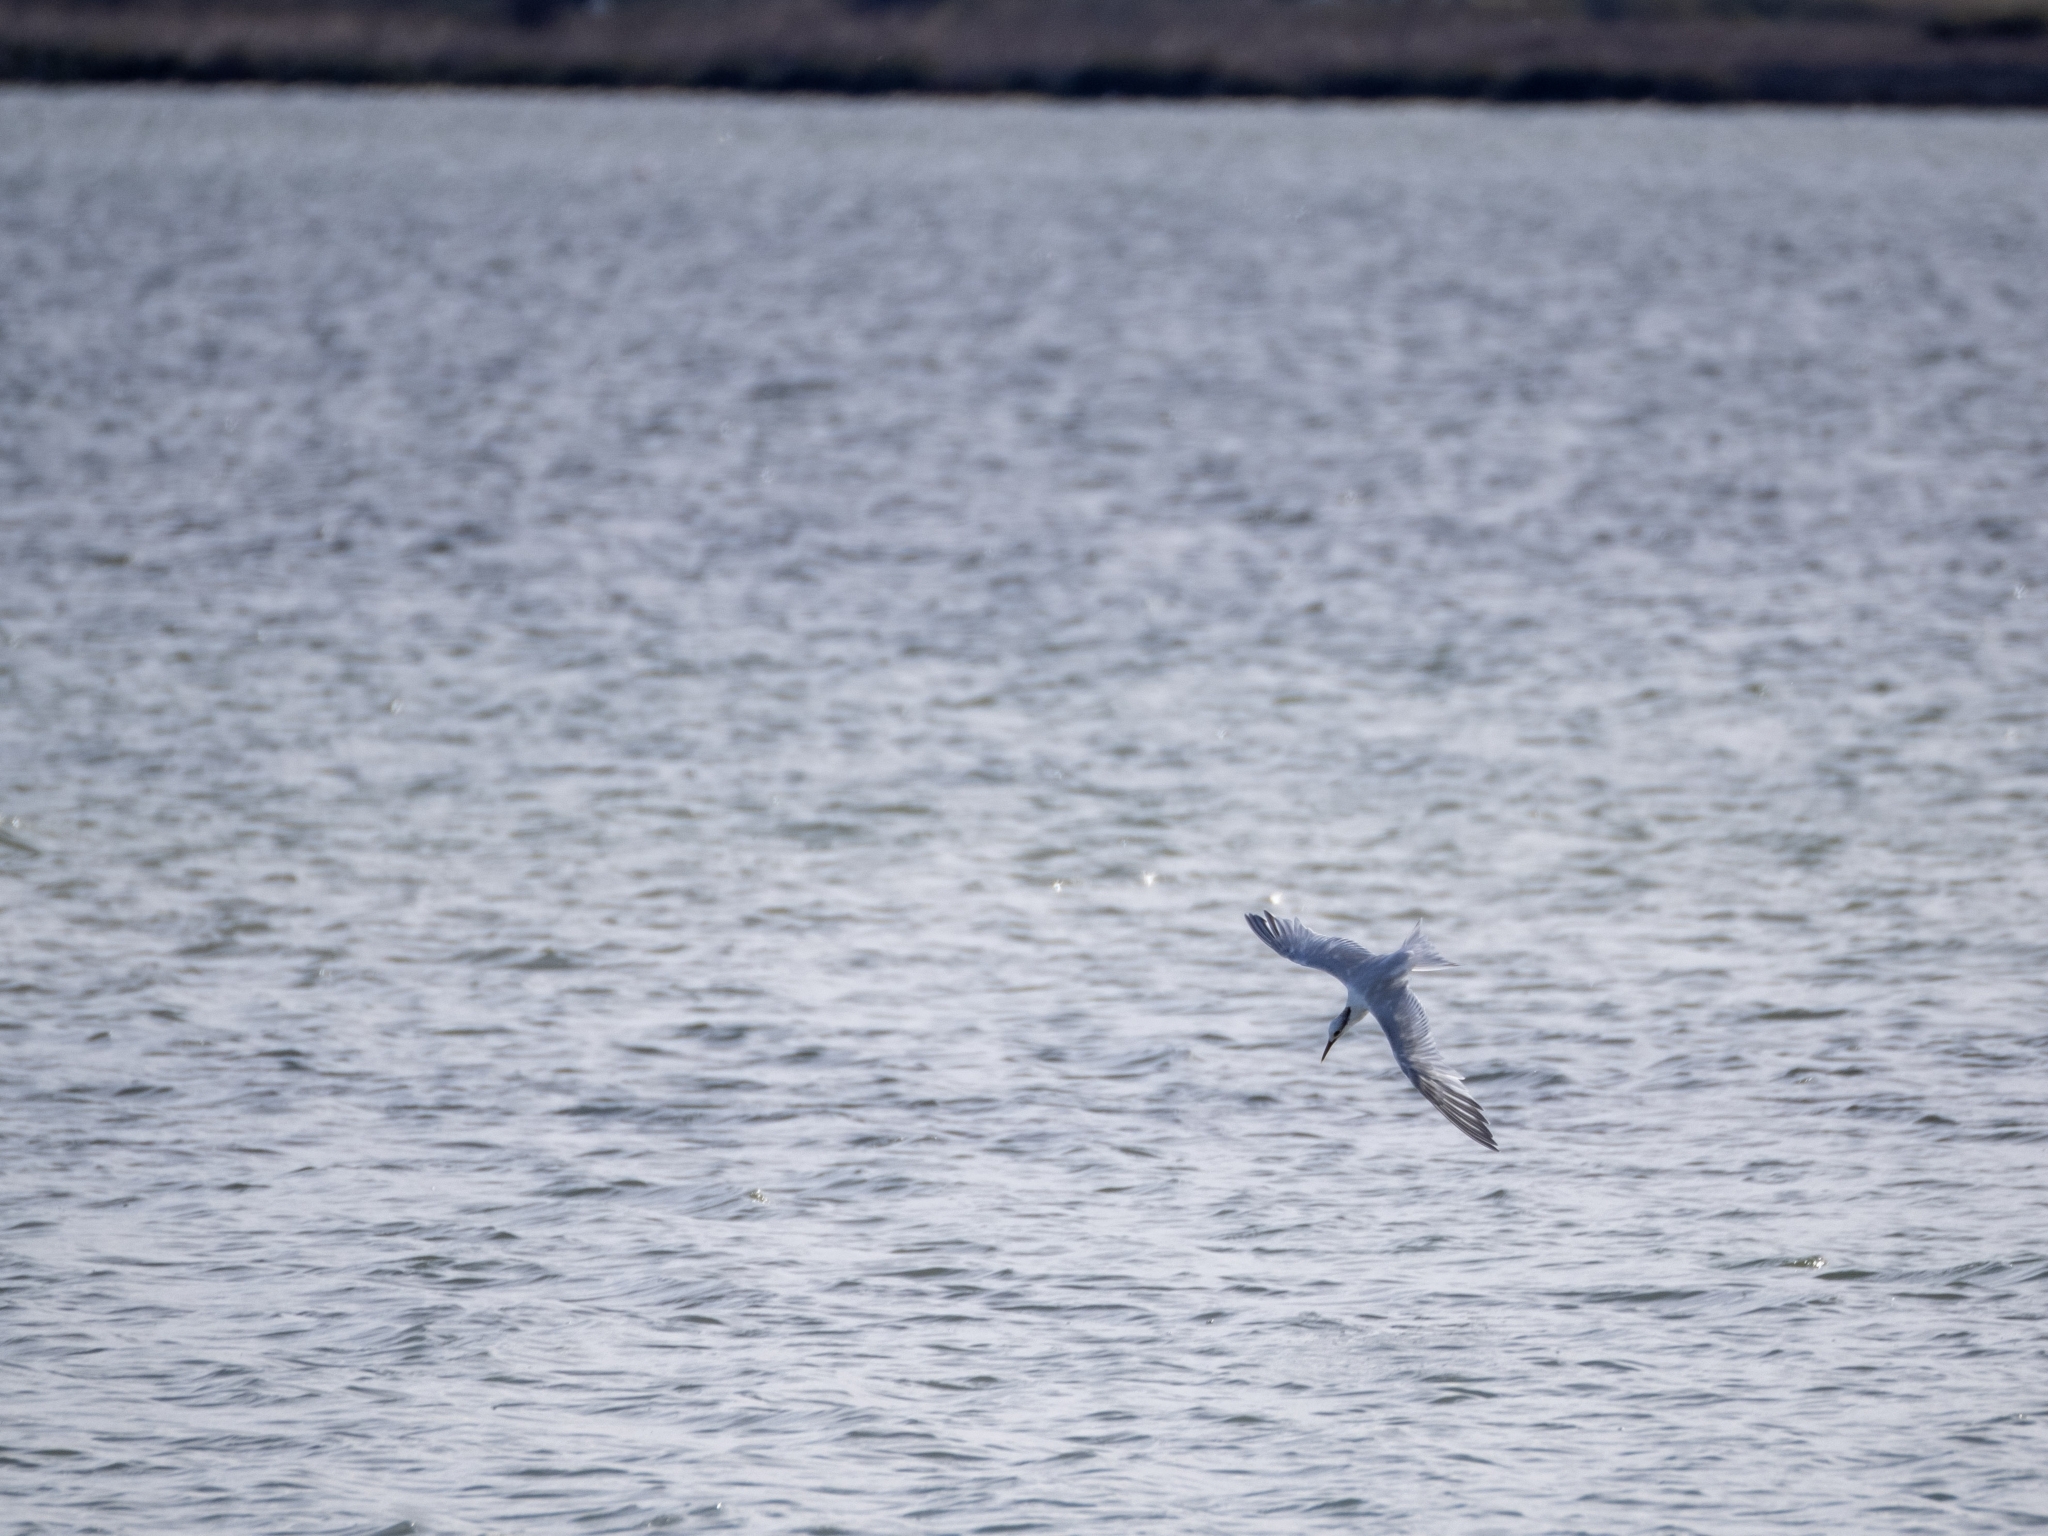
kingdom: Animalia
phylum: Chordata
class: Aves
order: Charadriiformes
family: Laridae
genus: Thalasseus
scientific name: Thalasseus sandvicensis
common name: Sandwich tern
